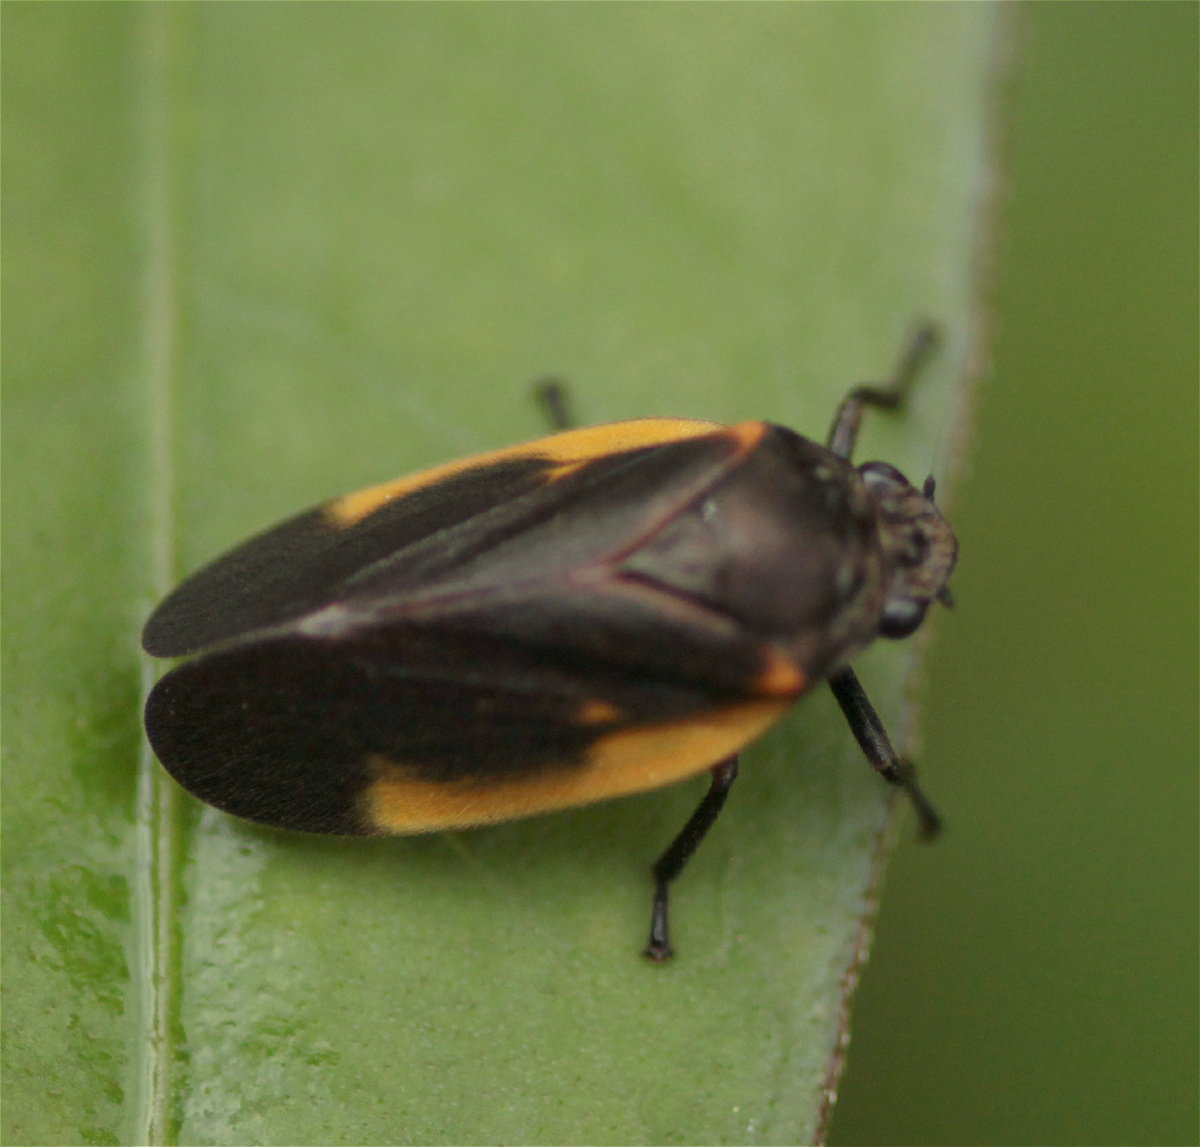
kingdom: Animalia
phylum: Arthropoda
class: Insecta
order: Hemiptera
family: Cercopidae
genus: Aeneolamia
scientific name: Aeneolamia flavilatera
